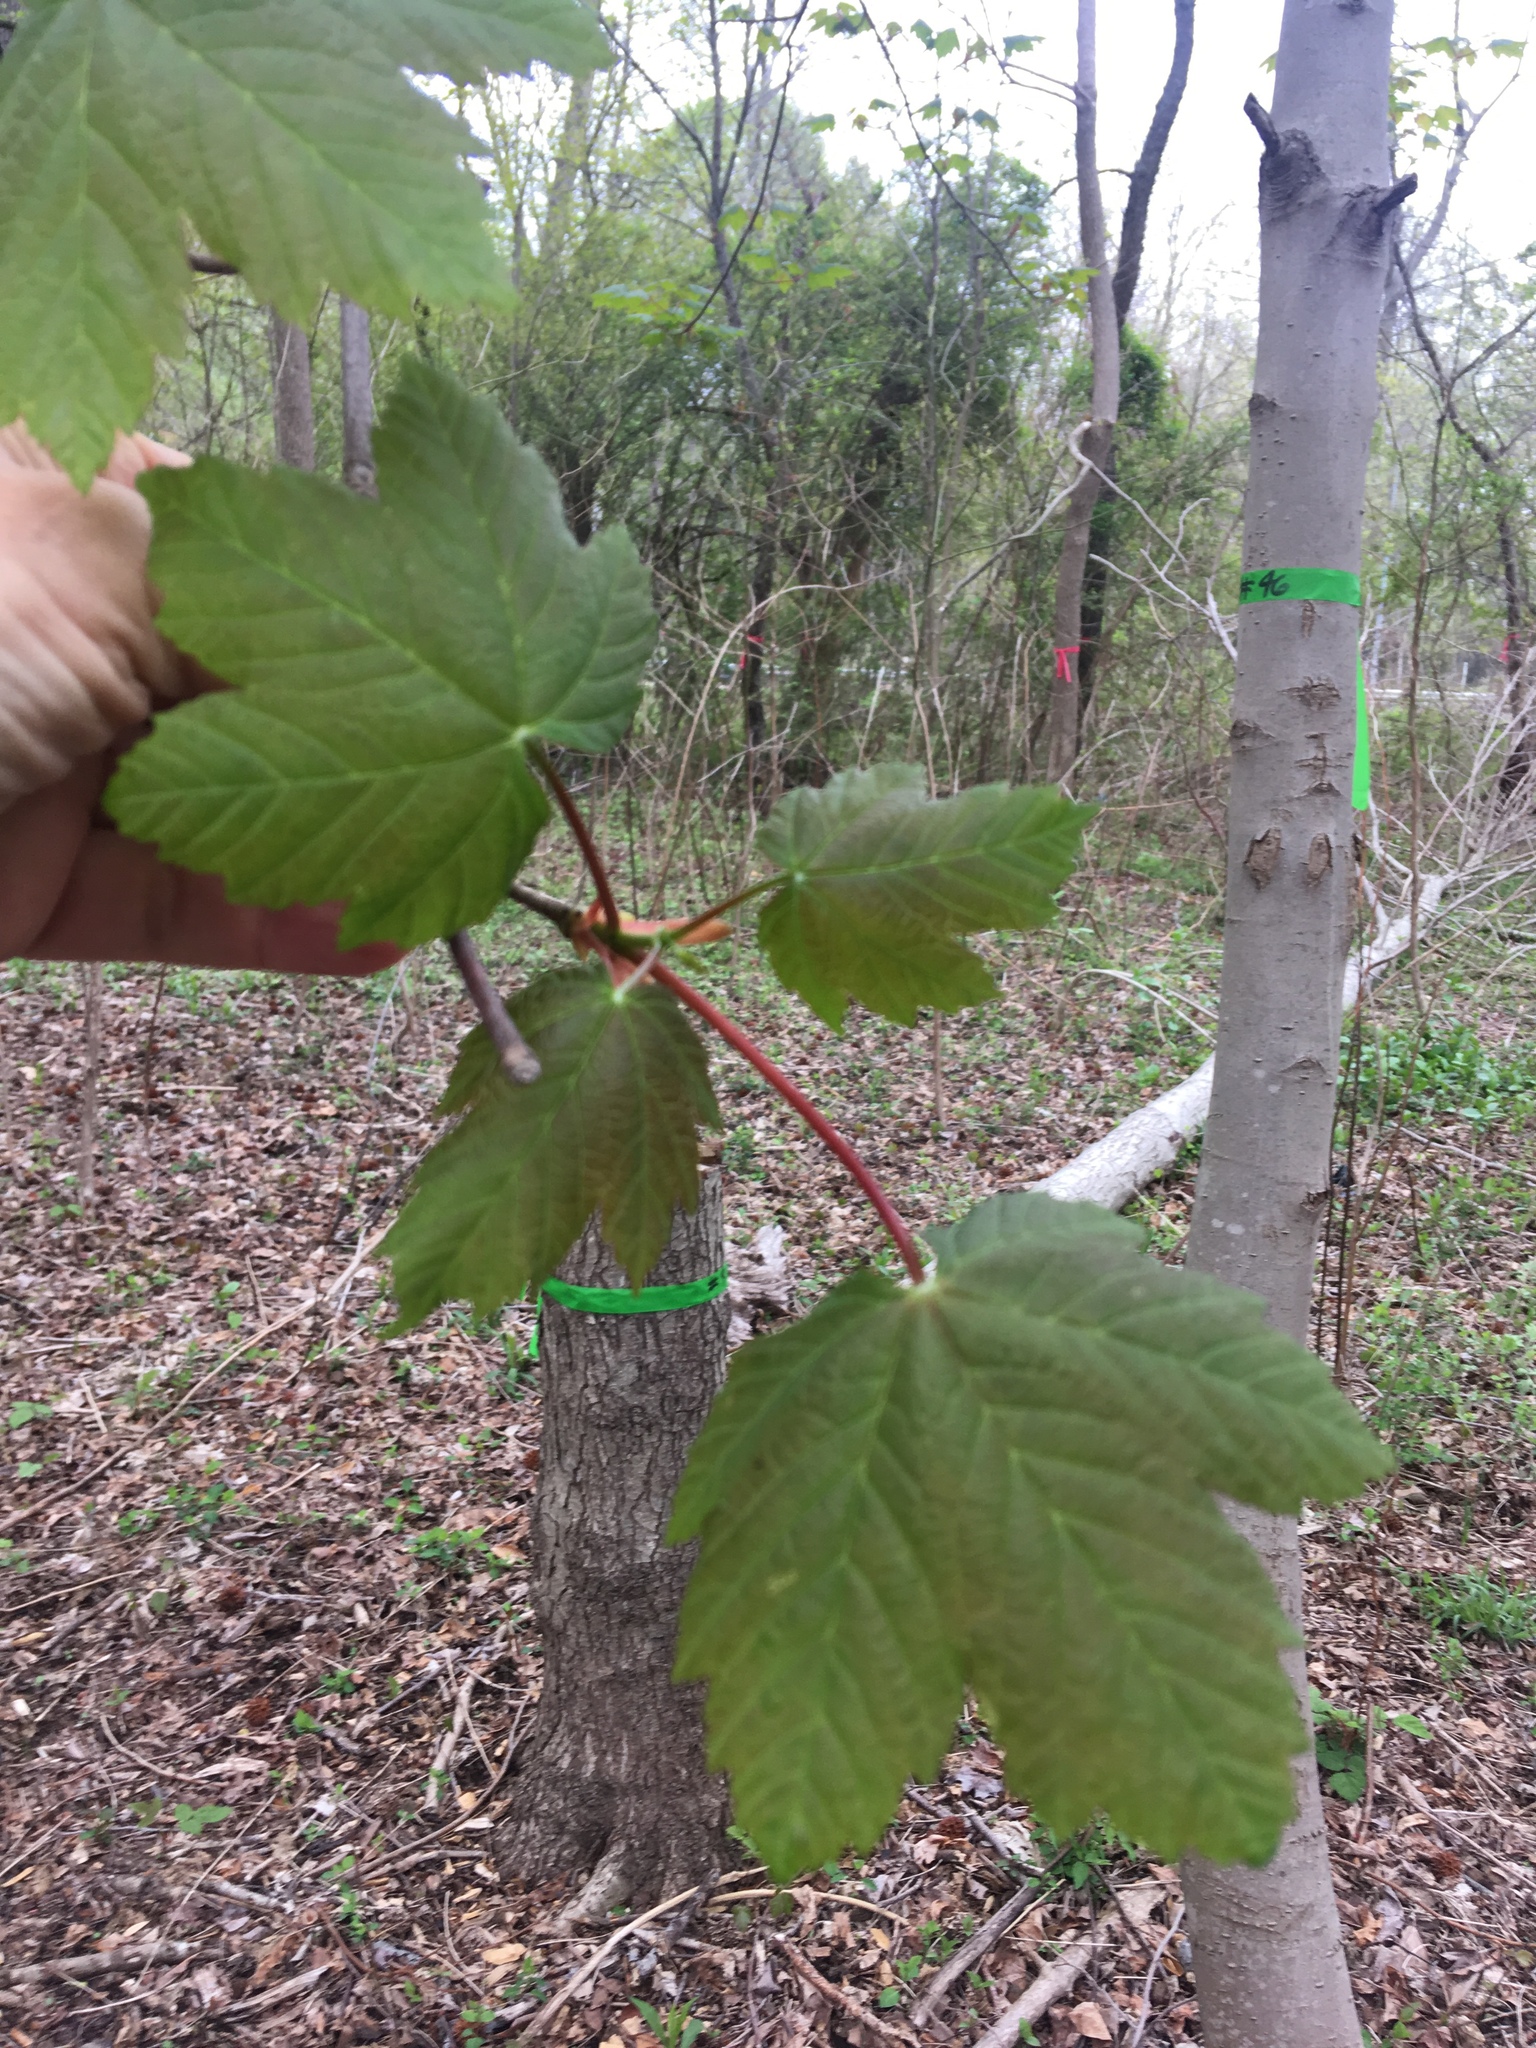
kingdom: Plantae
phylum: Tracheophyta
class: Magnoliopsida
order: Sapindales
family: Sapindaceae
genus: Acer
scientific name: Acer pseudoplatanus
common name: Sycamore
